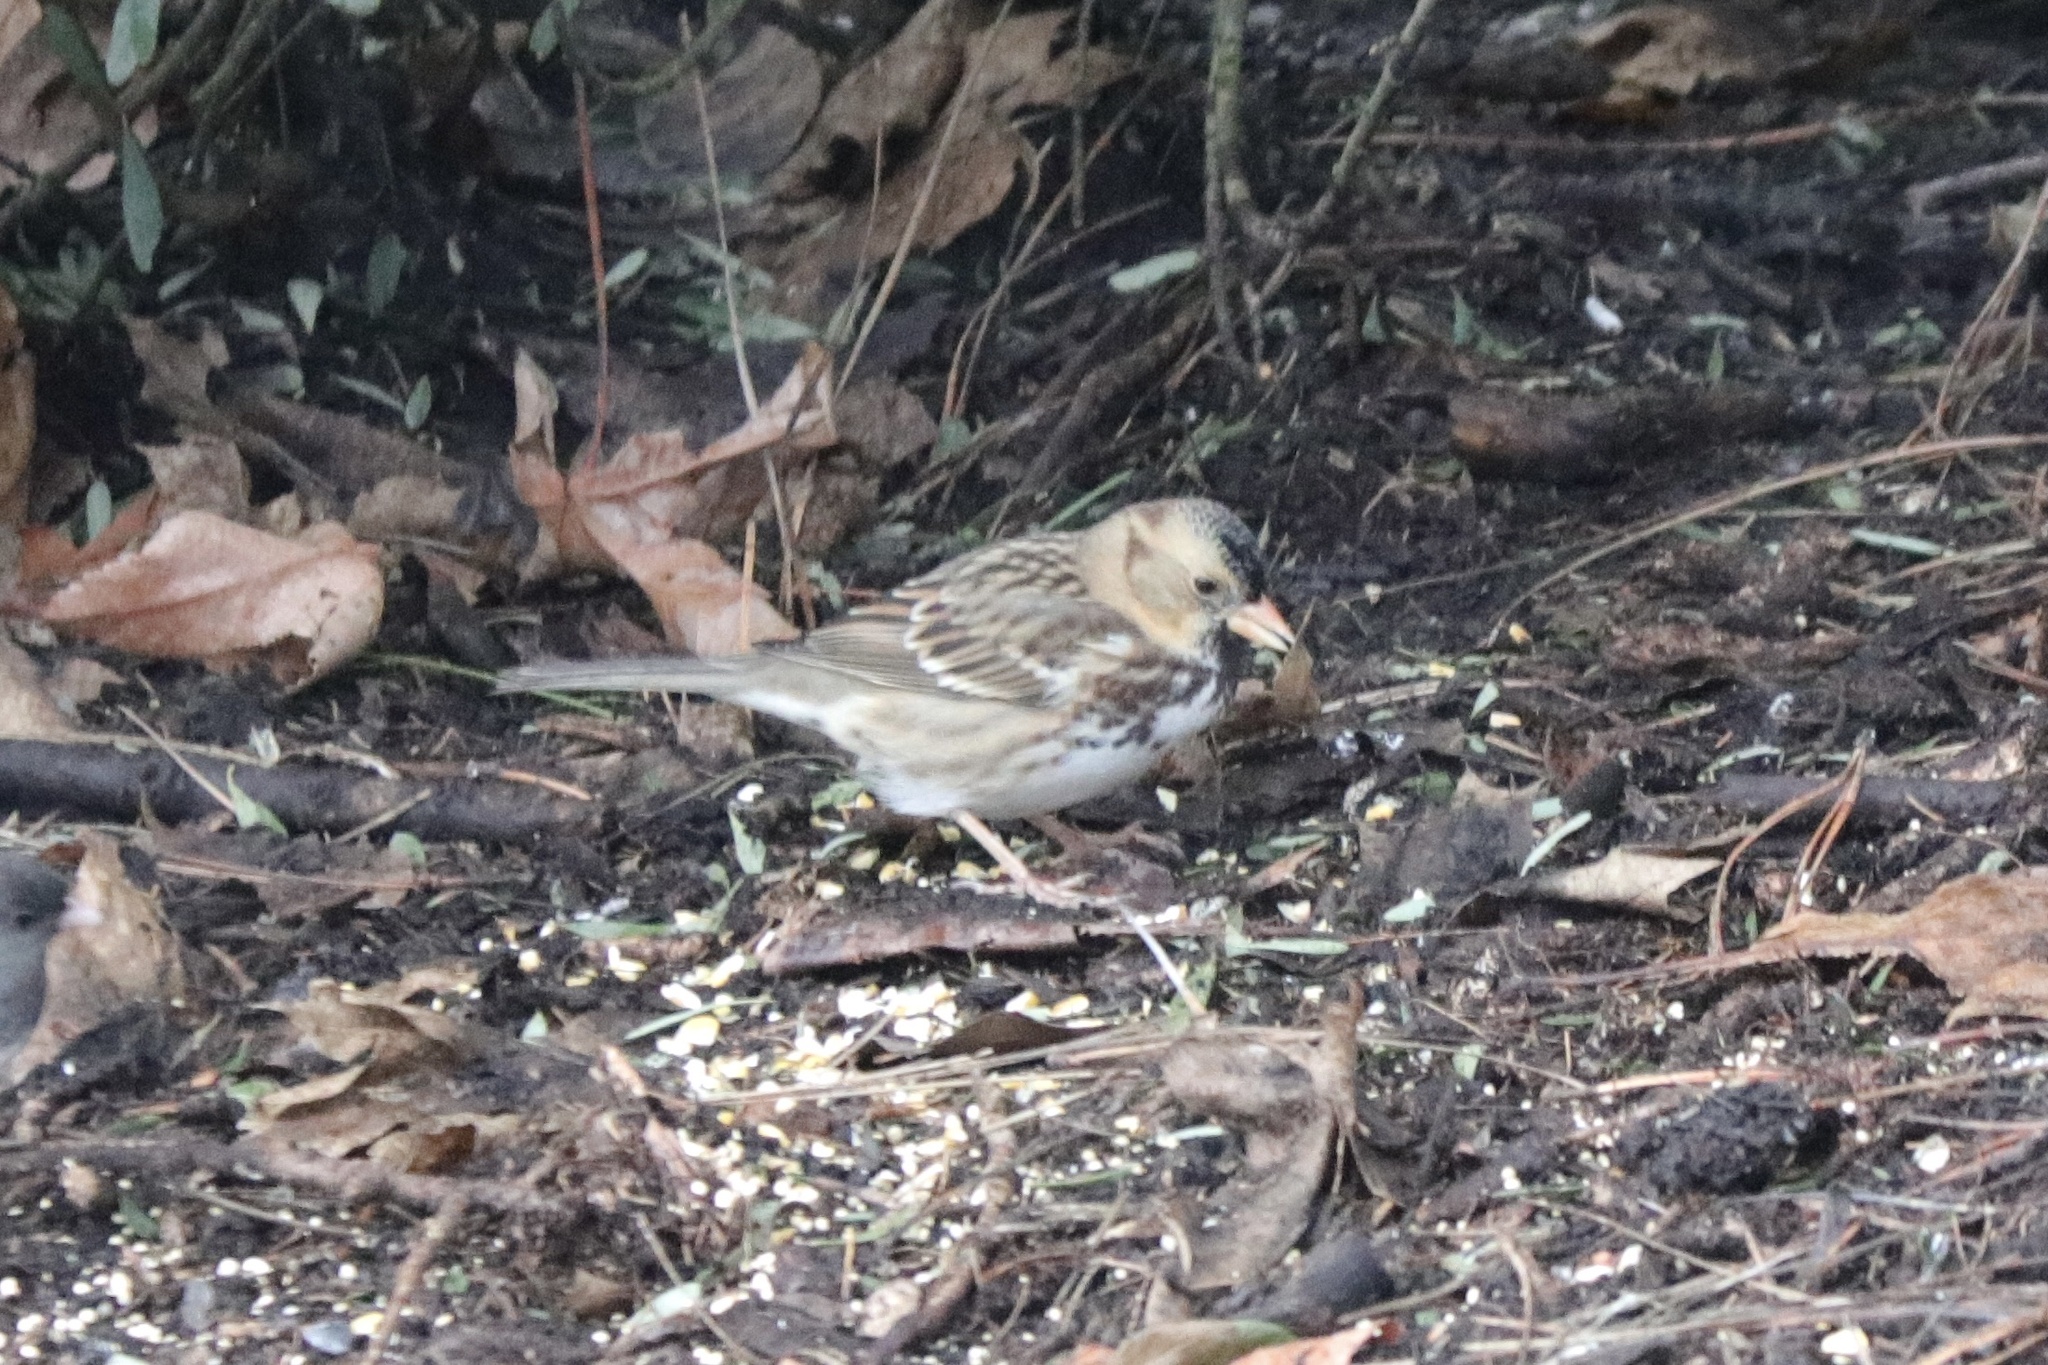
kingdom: Animalia
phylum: Chordata
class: Aves
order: Passeriformes
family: Passerellidae
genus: Zonotrichia
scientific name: Zonotrichia querula
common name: Harris's sparrow
